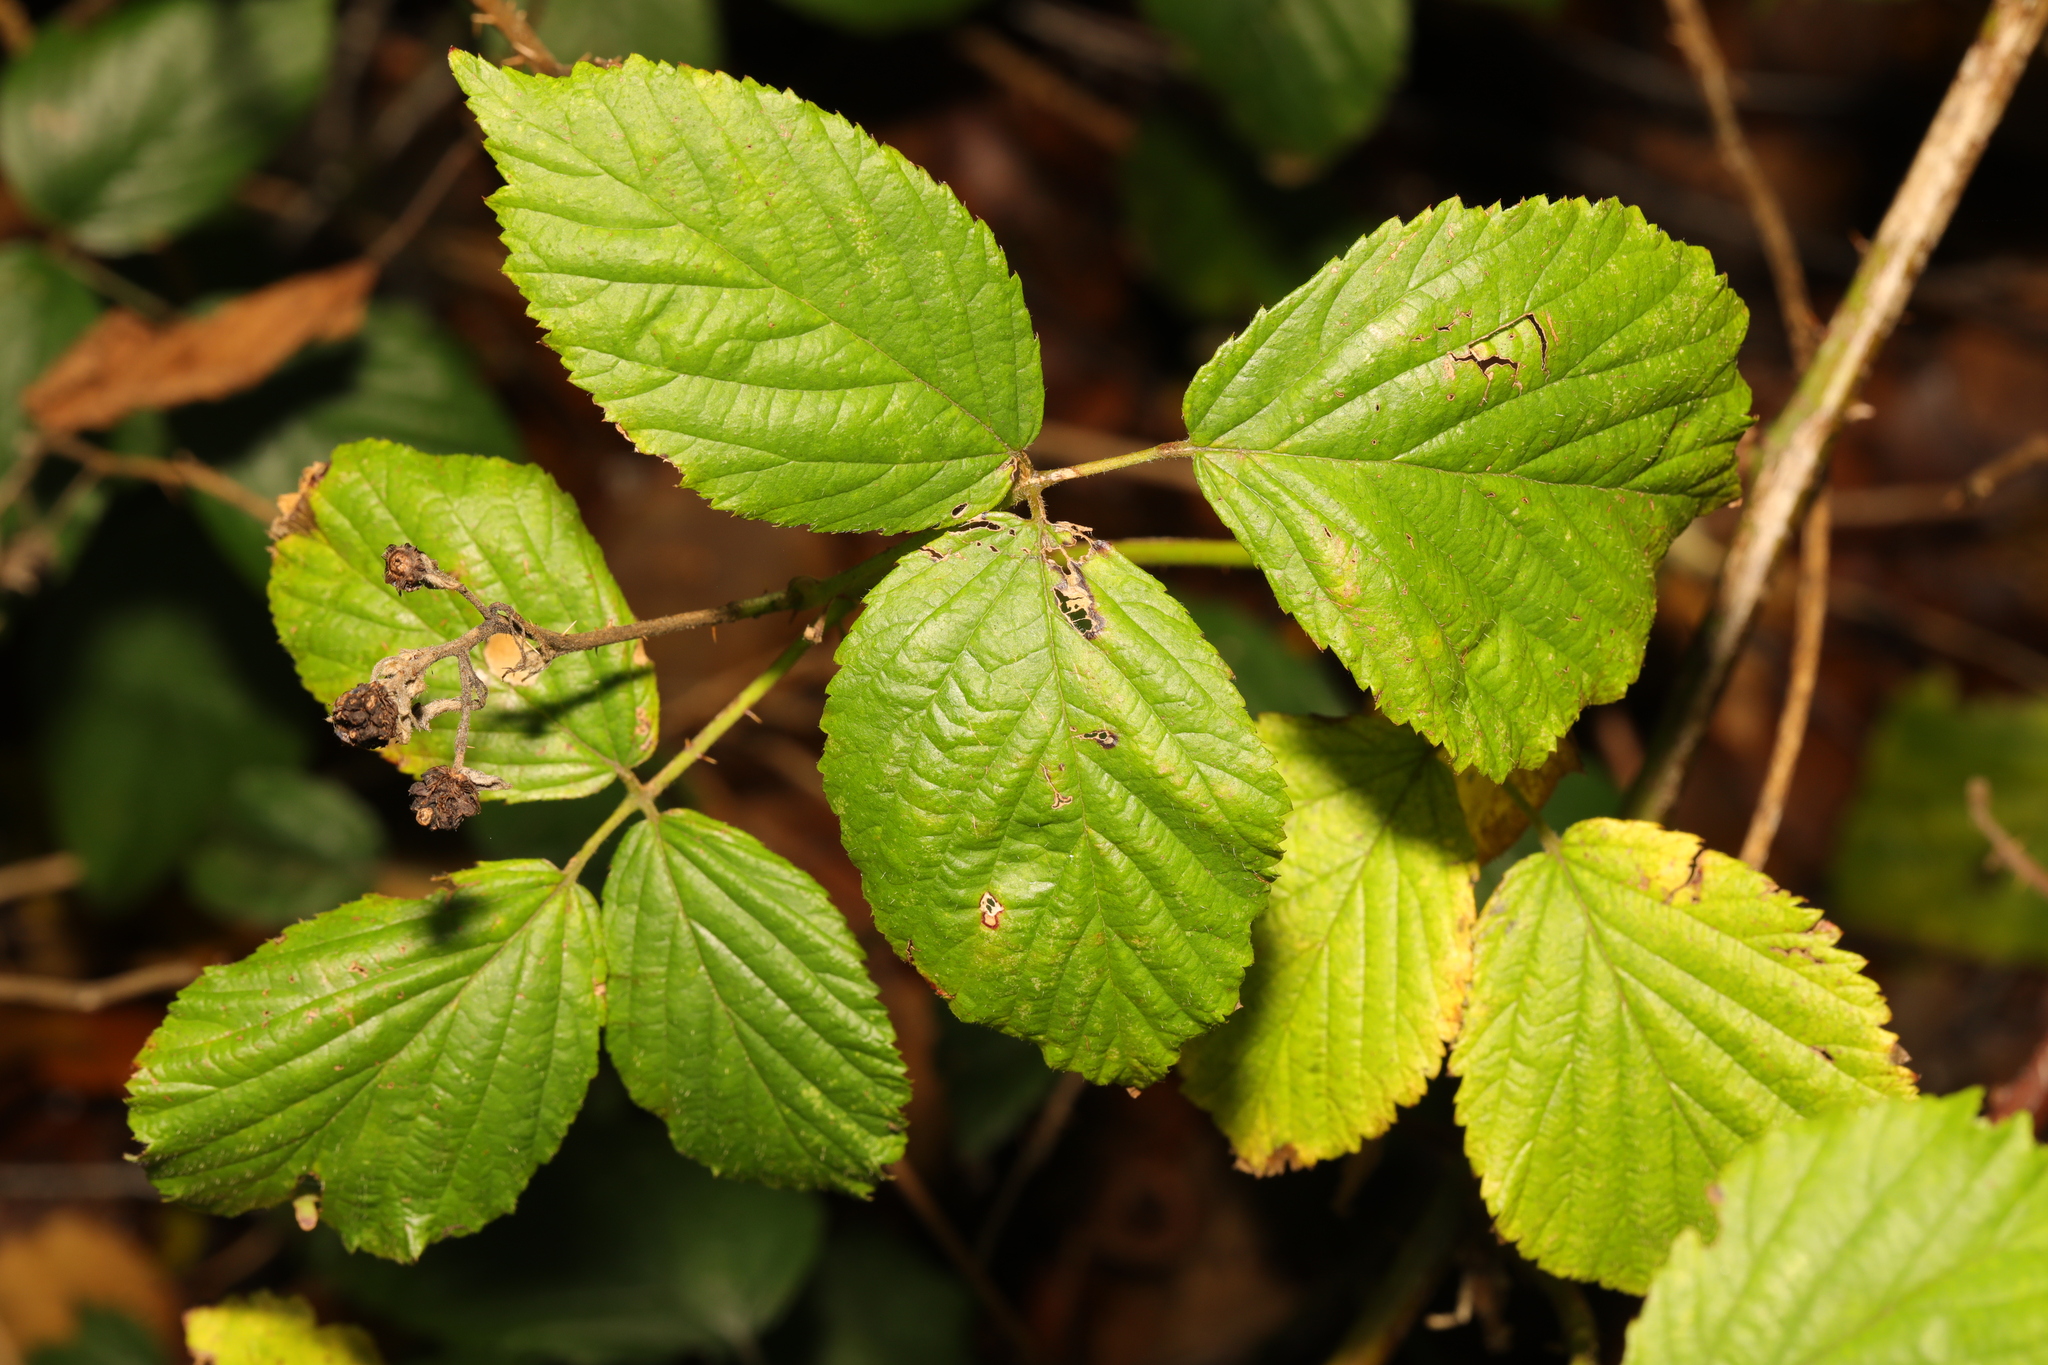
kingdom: Plantae
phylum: Tracheophyta
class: Magnoliopsida
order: Rosales
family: Rosaceae
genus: Rubus
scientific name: Rubus fruticosus
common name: Blackberry, bramble
